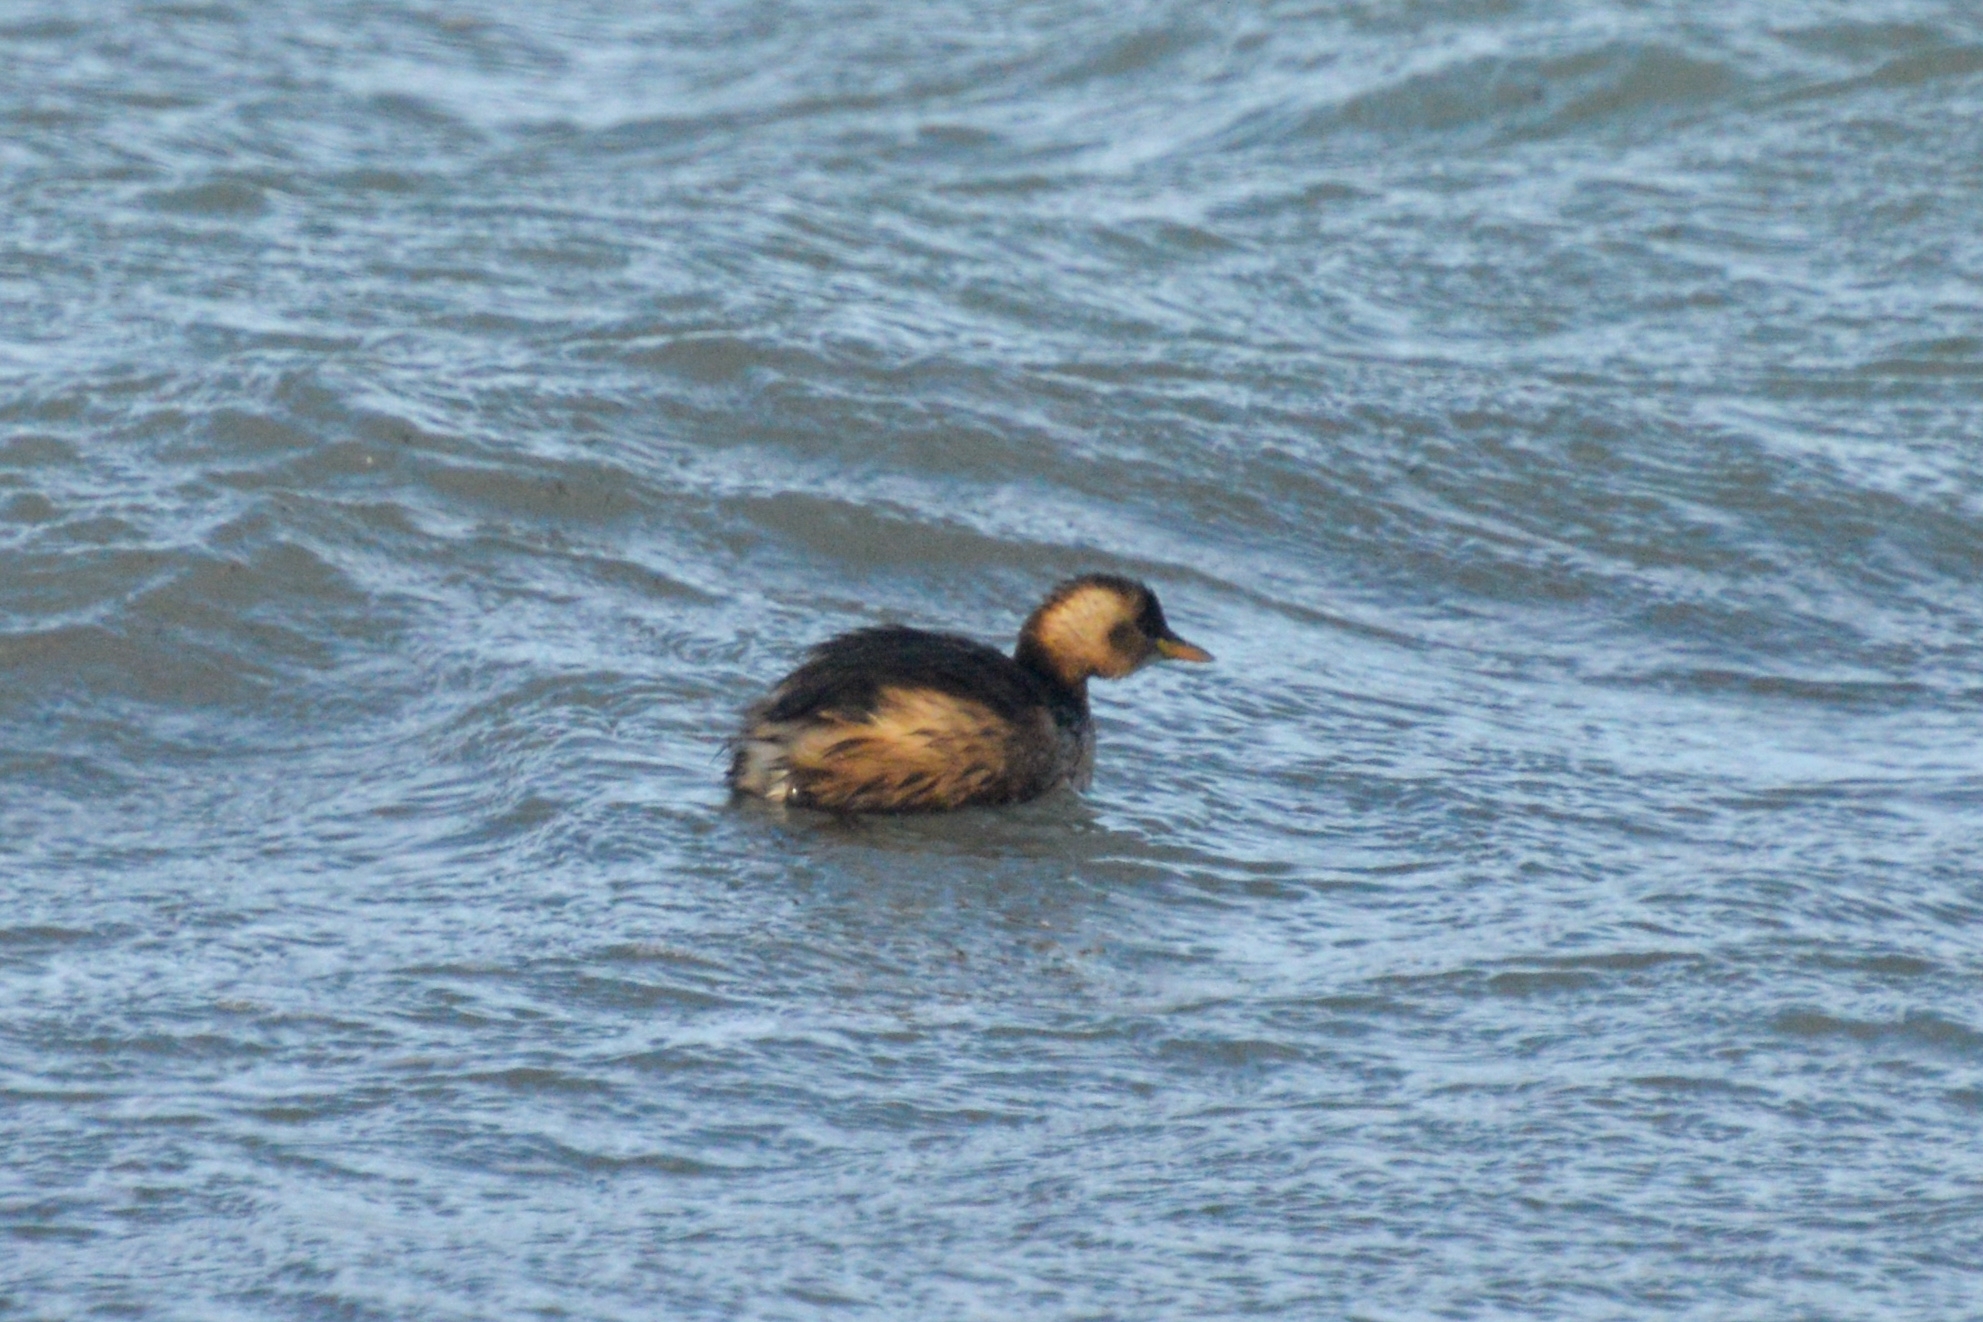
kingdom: Animalia
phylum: Chordata
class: Aves
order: Podicipediformes
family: Podicipedidae
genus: Tachybaptus
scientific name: Tachybaptus ruficollis
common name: Little grebe
